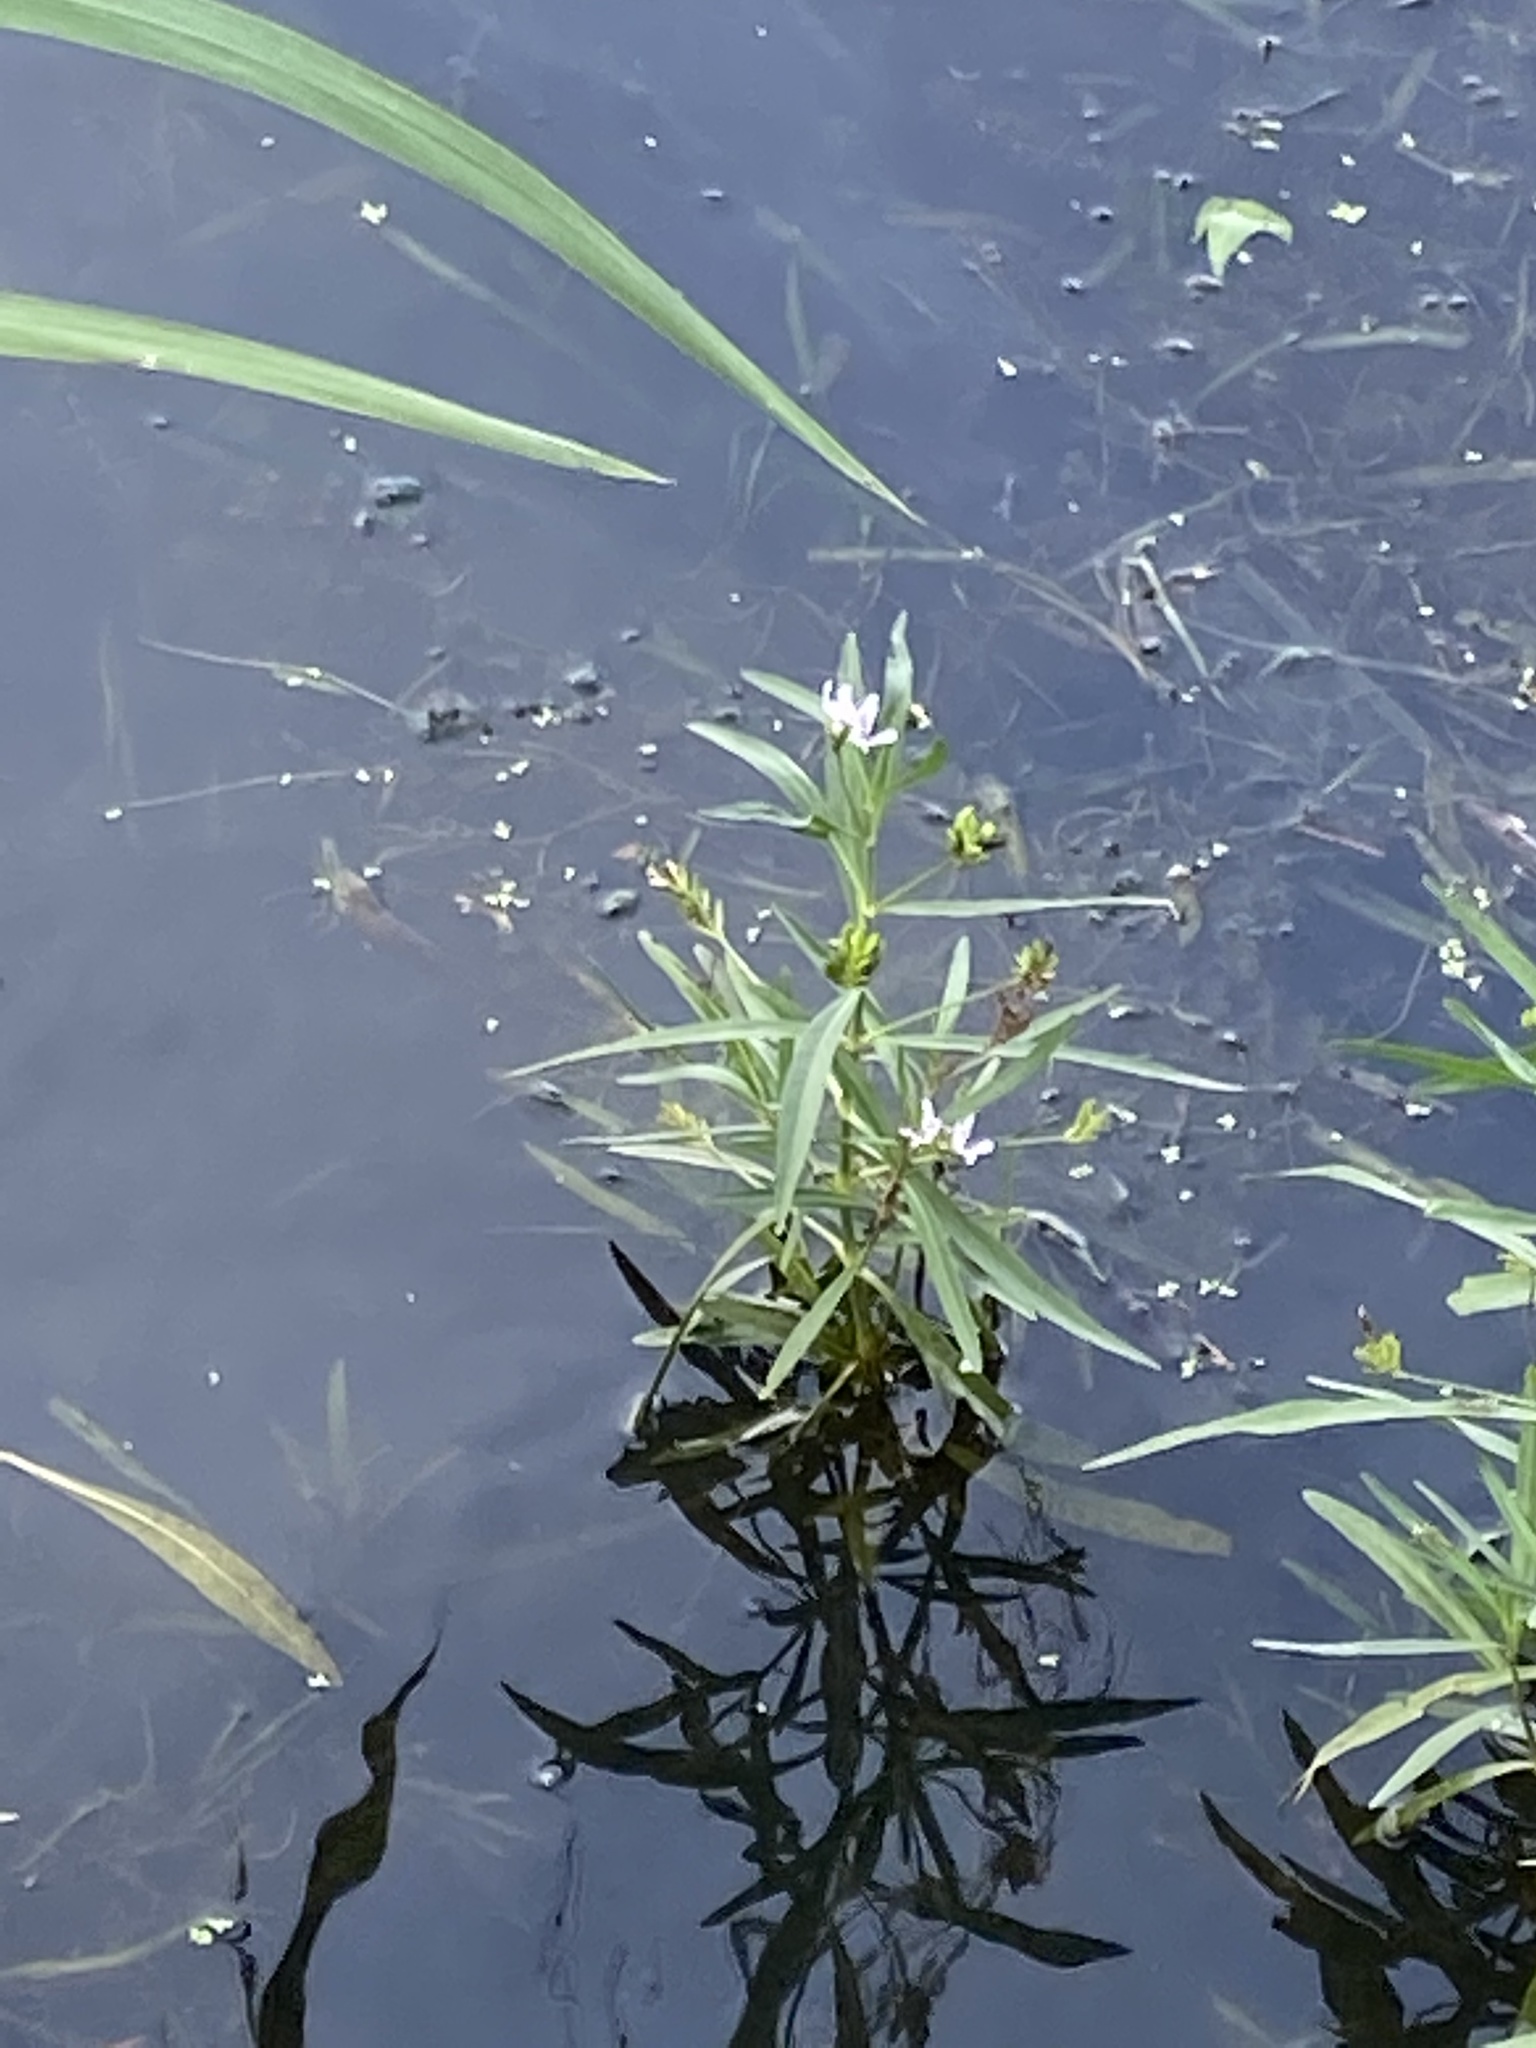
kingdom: Plantae
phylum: Tracheophyta
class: Magnoliopsida
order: Lamiales
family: Acanthaceae
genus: Dianthera
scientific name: Dianthera americana
